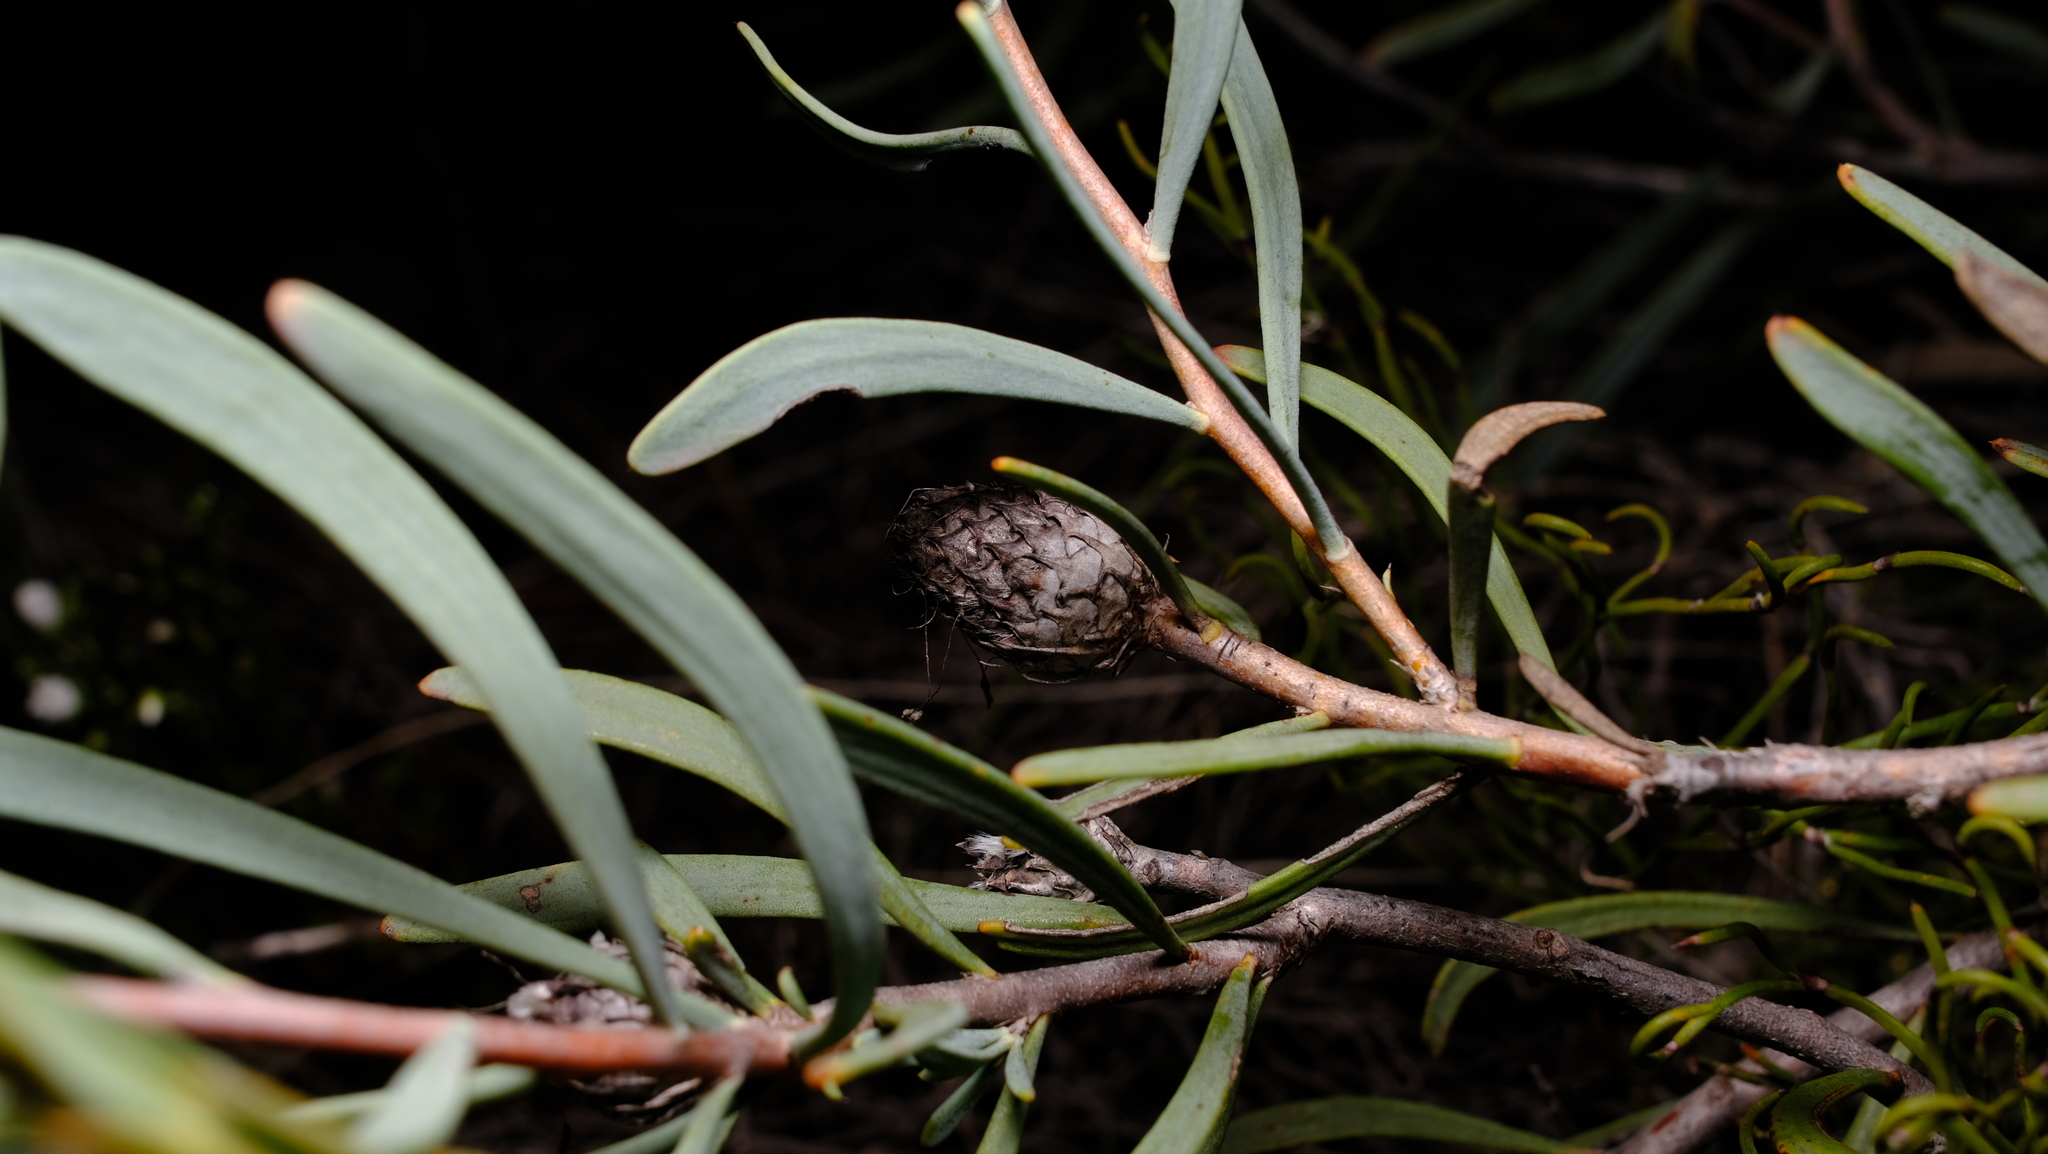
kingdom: Plantae
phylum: Tracheophyta
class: Magnoliopsida
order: Proteales
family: Proteaceae
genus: Petrophile
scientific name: Petrophile linearis
